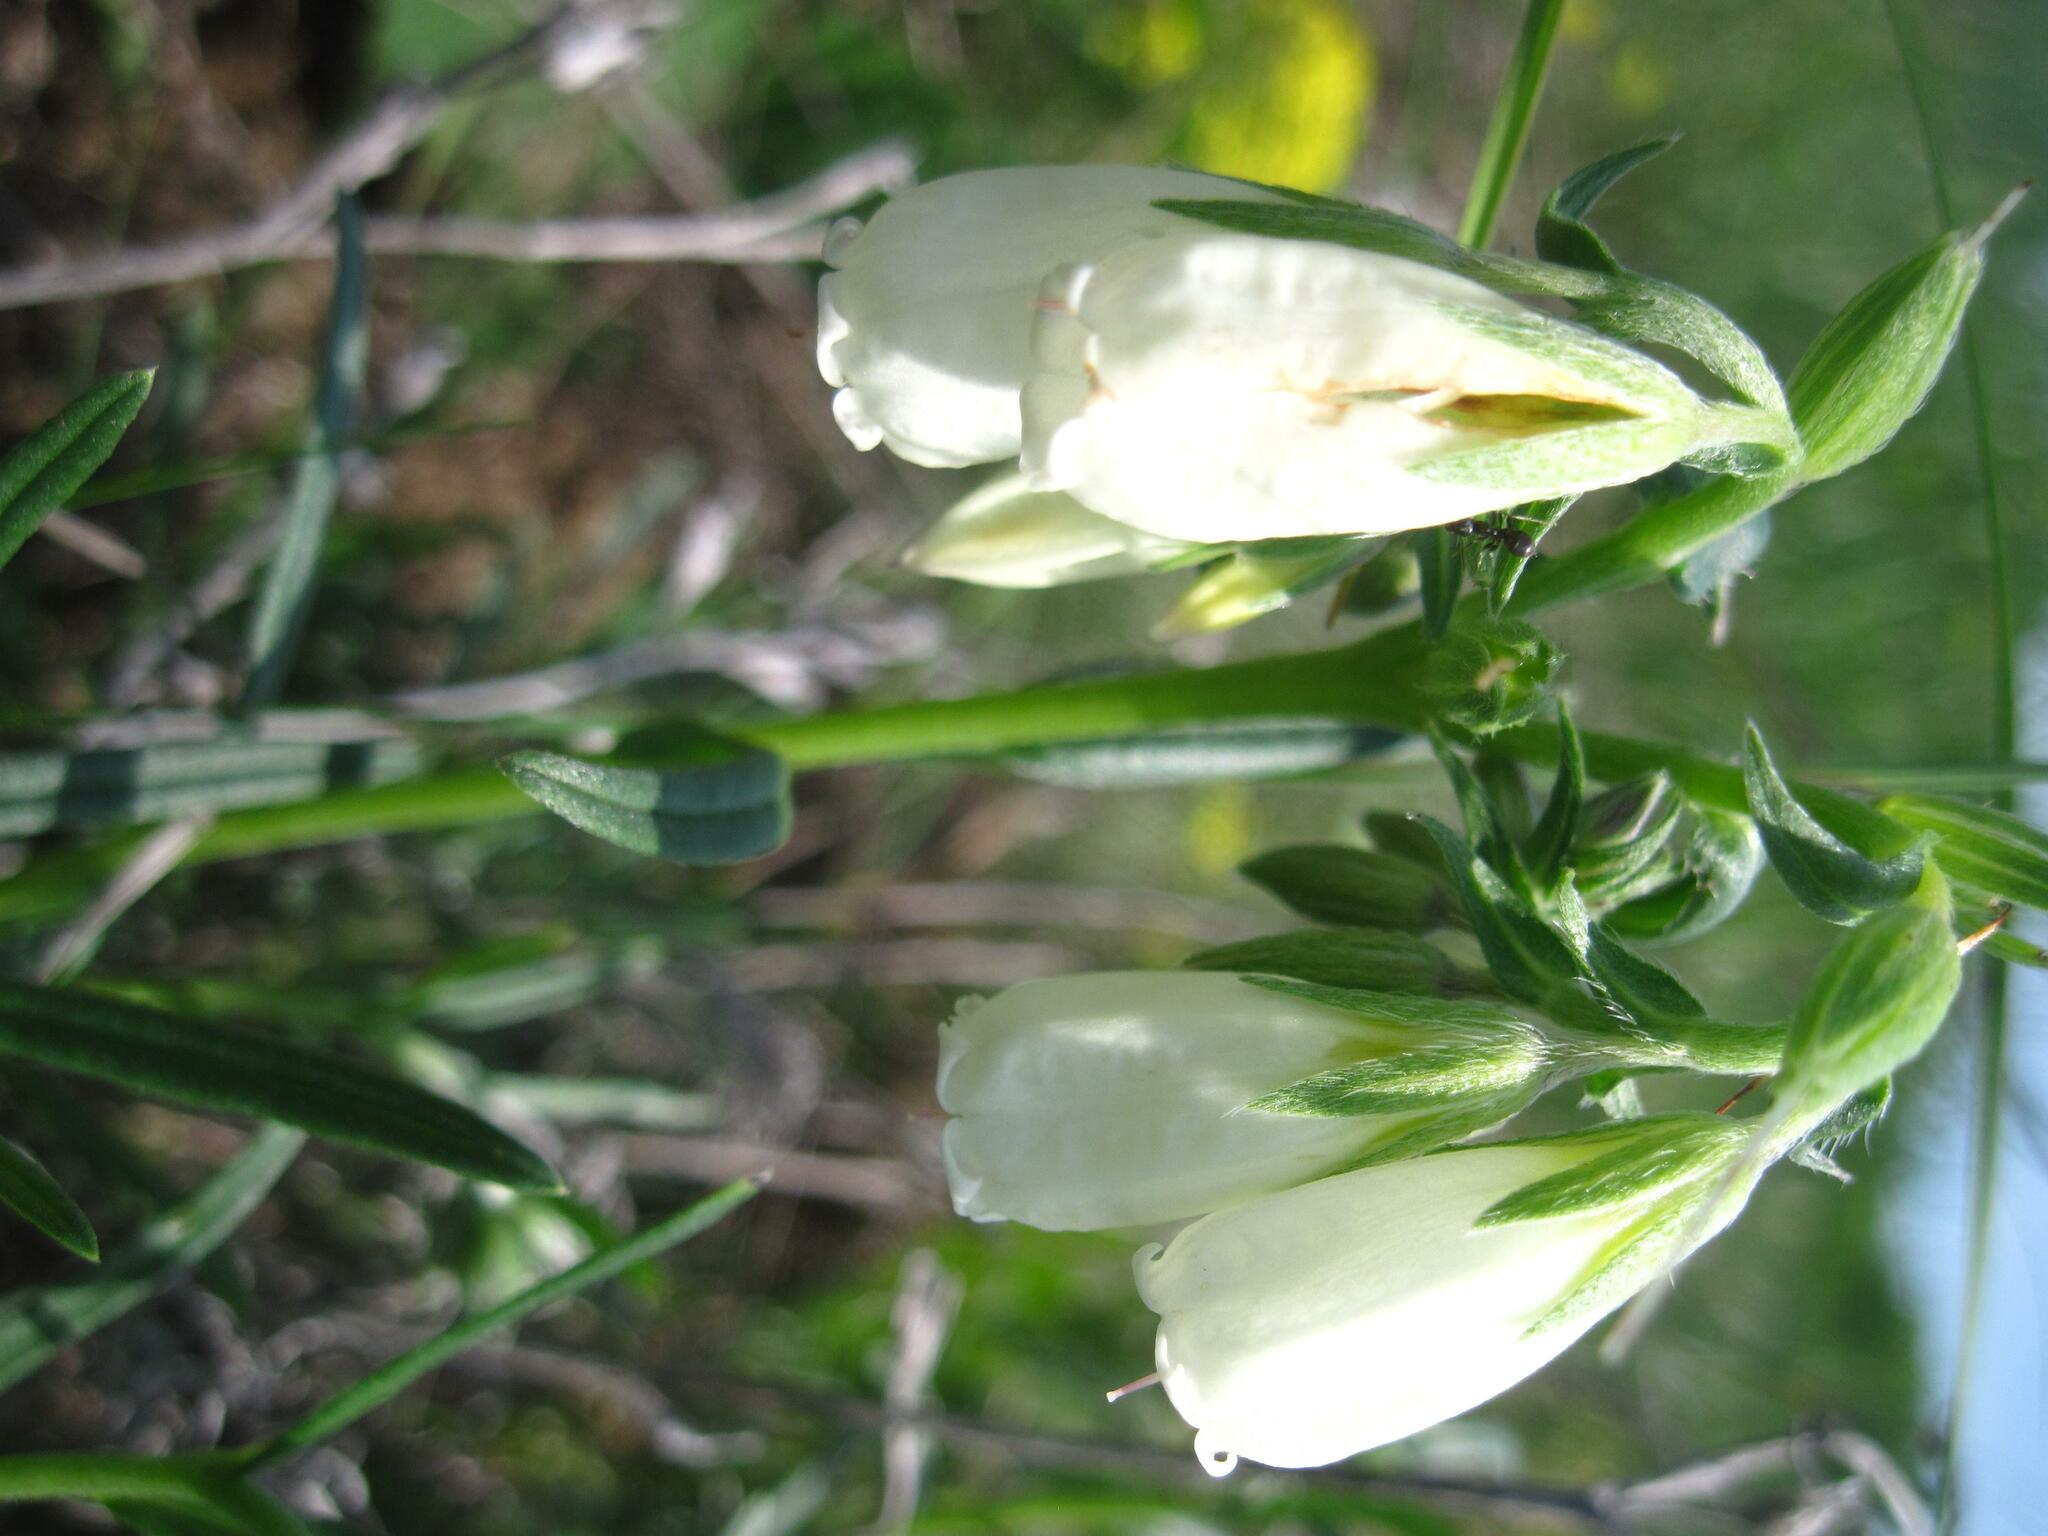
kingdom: Plantae
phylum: Tracheophyta
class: Magnoliopsida
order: Boraginales
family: Boraginaceae
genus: Onosma
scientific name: Onosma simplicissima
